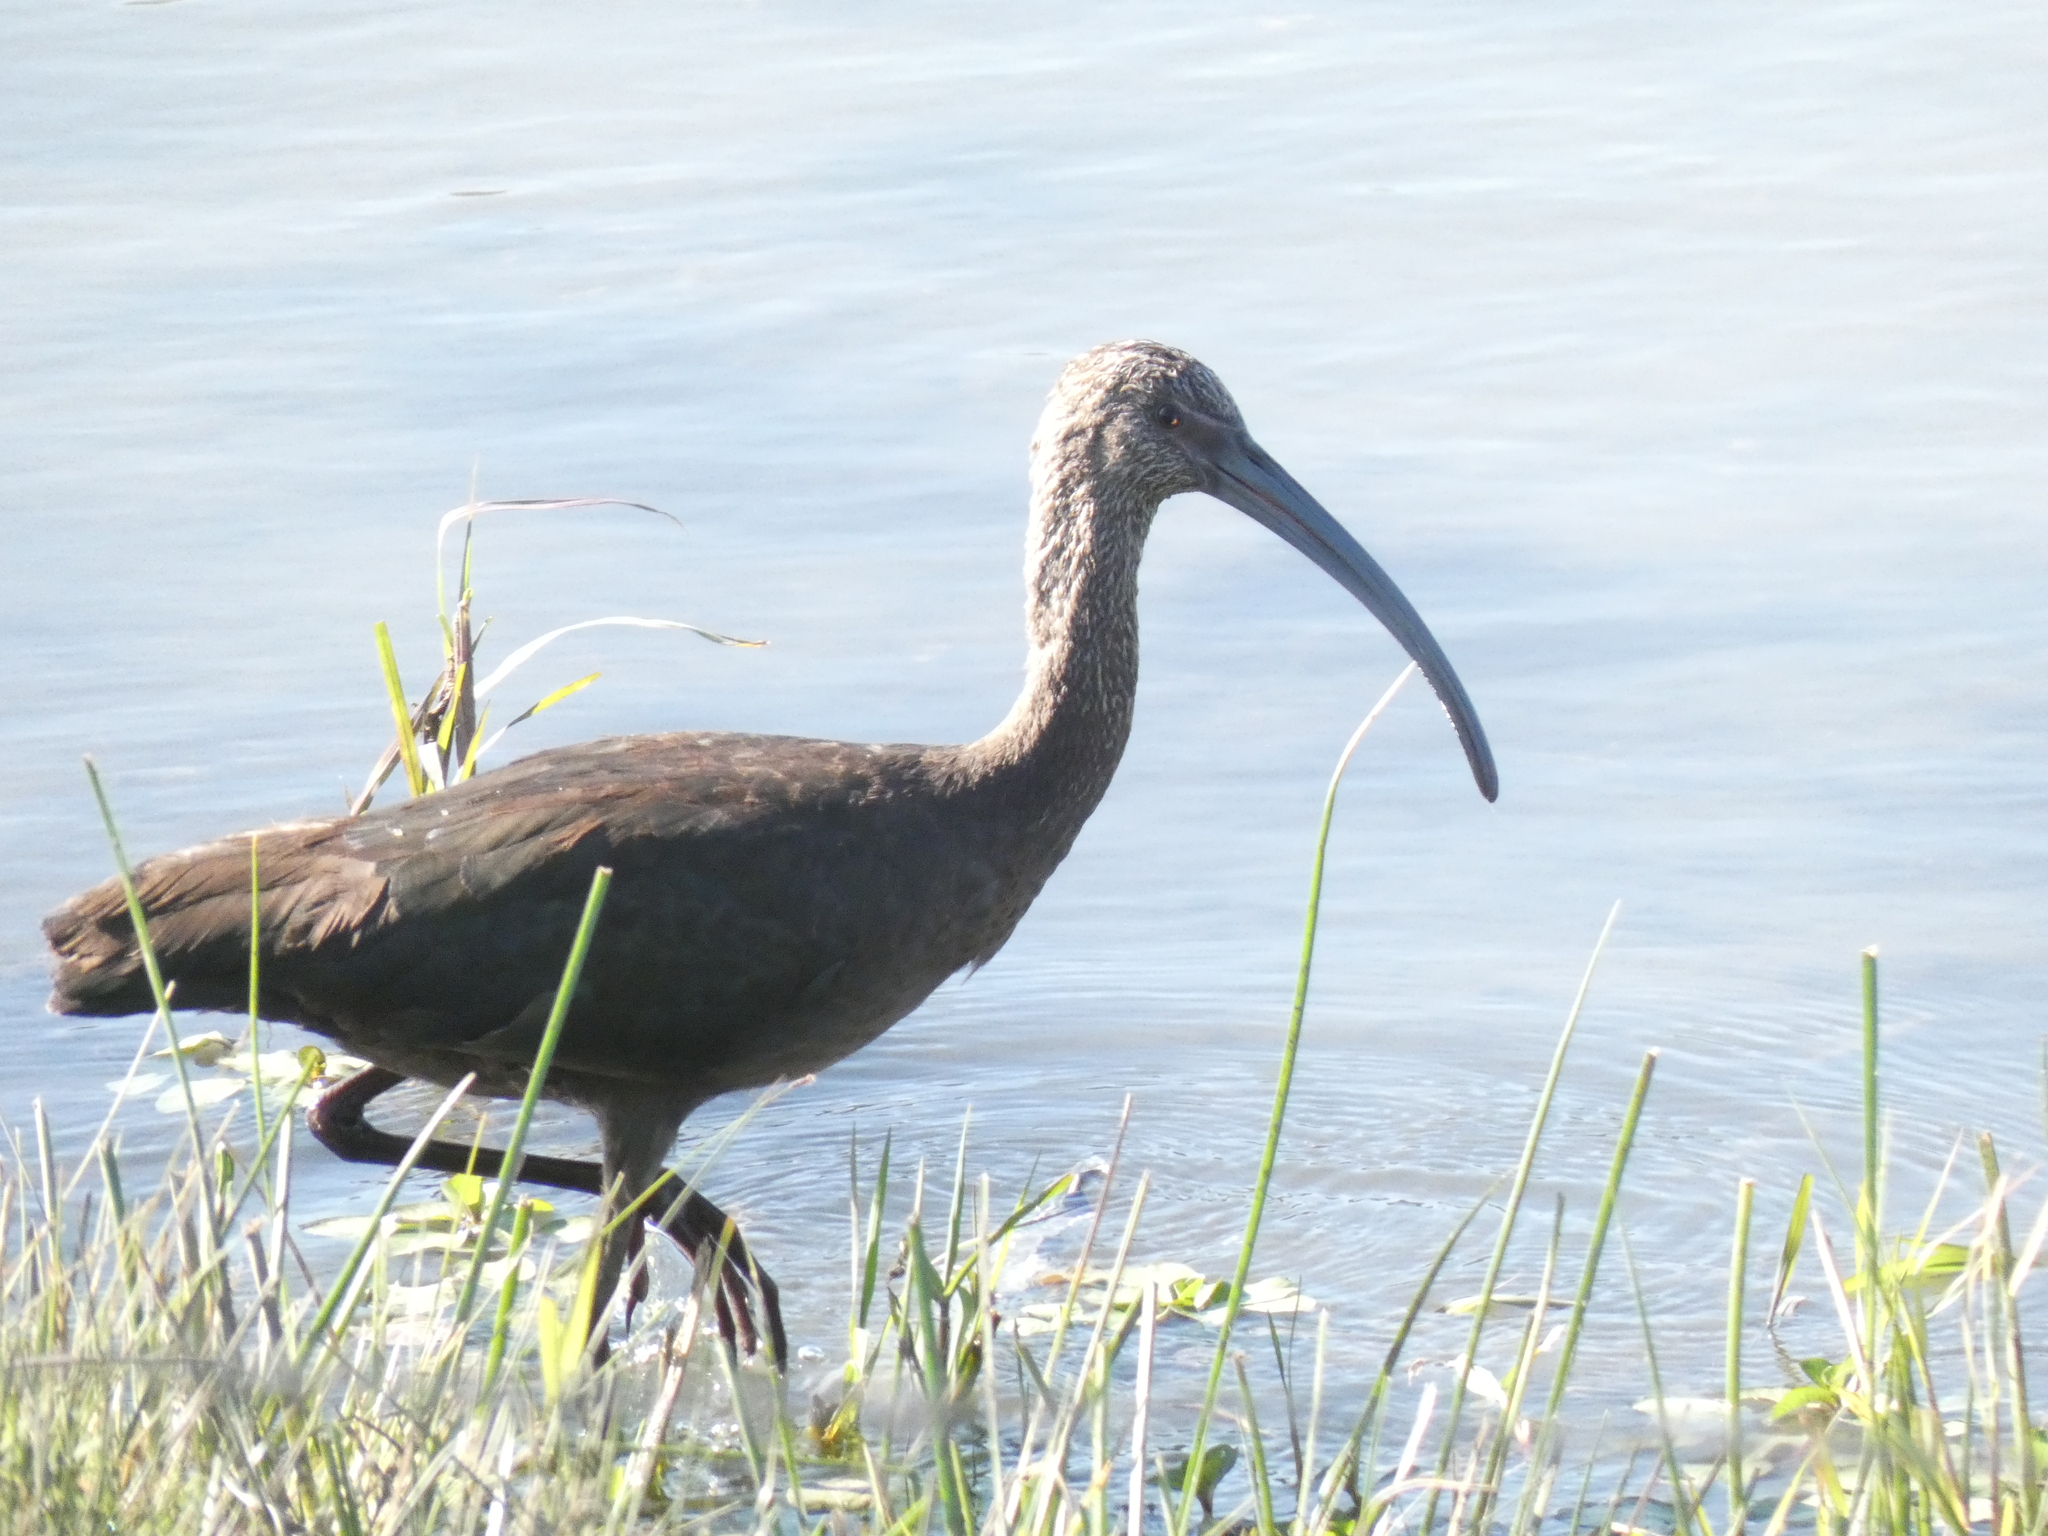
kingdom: Animalia
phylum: Chordata
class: Aves
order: Pelecaniformes
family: Threskiornithidae
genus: Plegadis
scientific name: Plegadis chihi
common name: White-faced ibis
